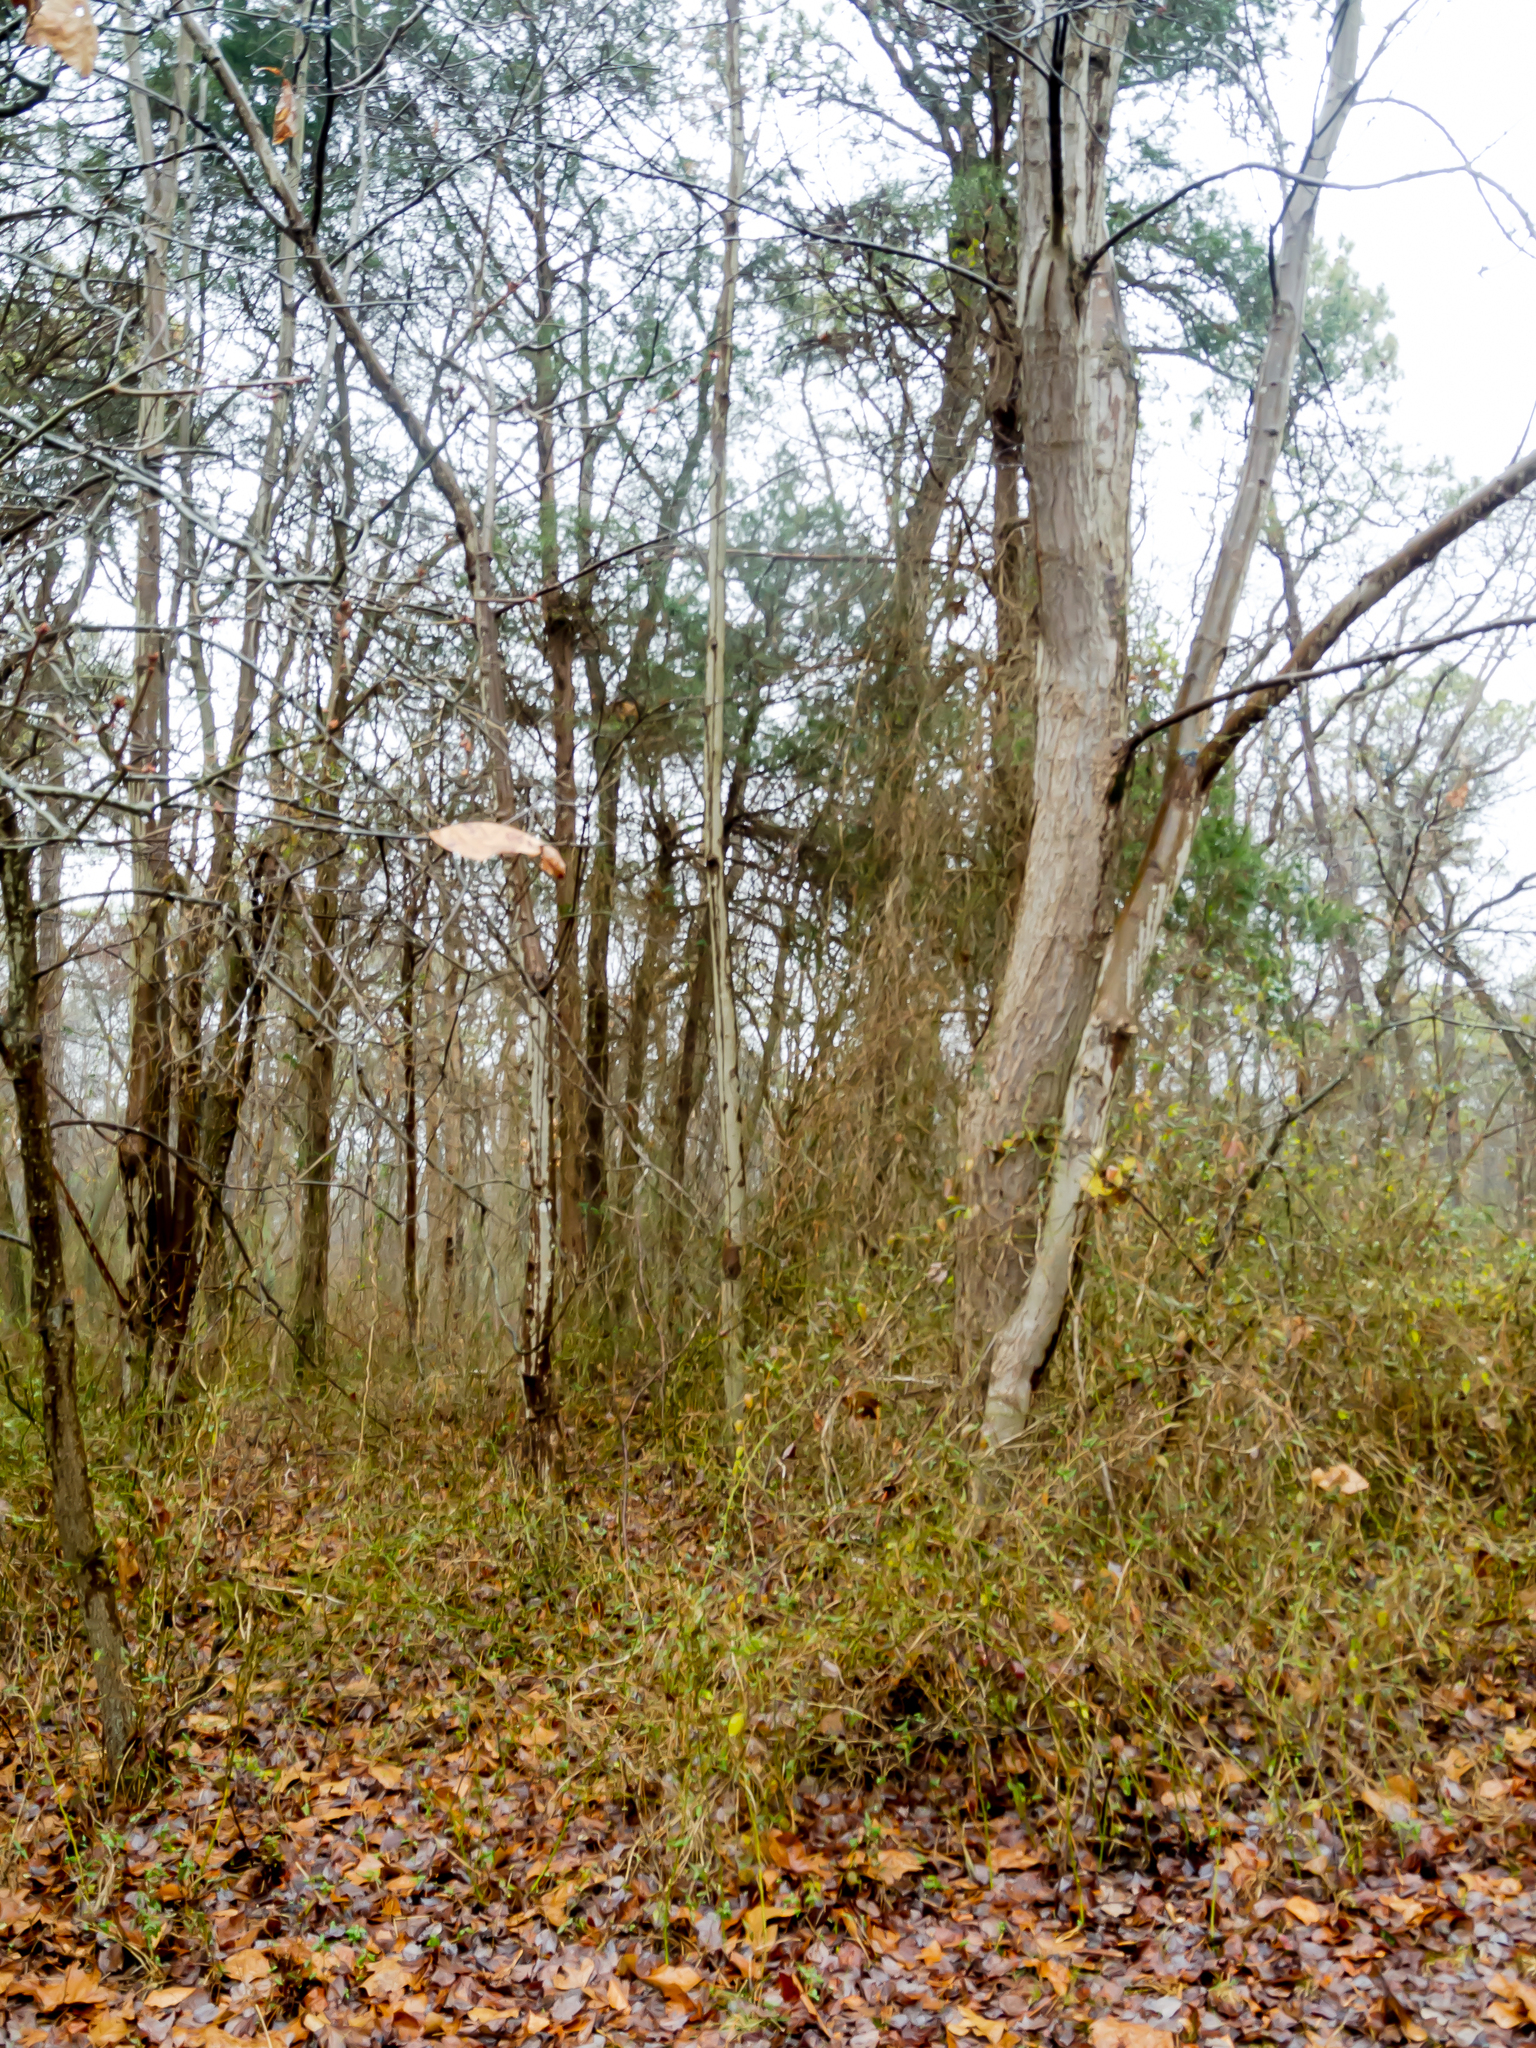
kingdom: Plantae
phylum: Tracheophyta
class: Magnoliopsida
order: Sapindales
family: Sapindaceae
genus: Acer
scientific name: Acer rubrum
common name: Red maple
